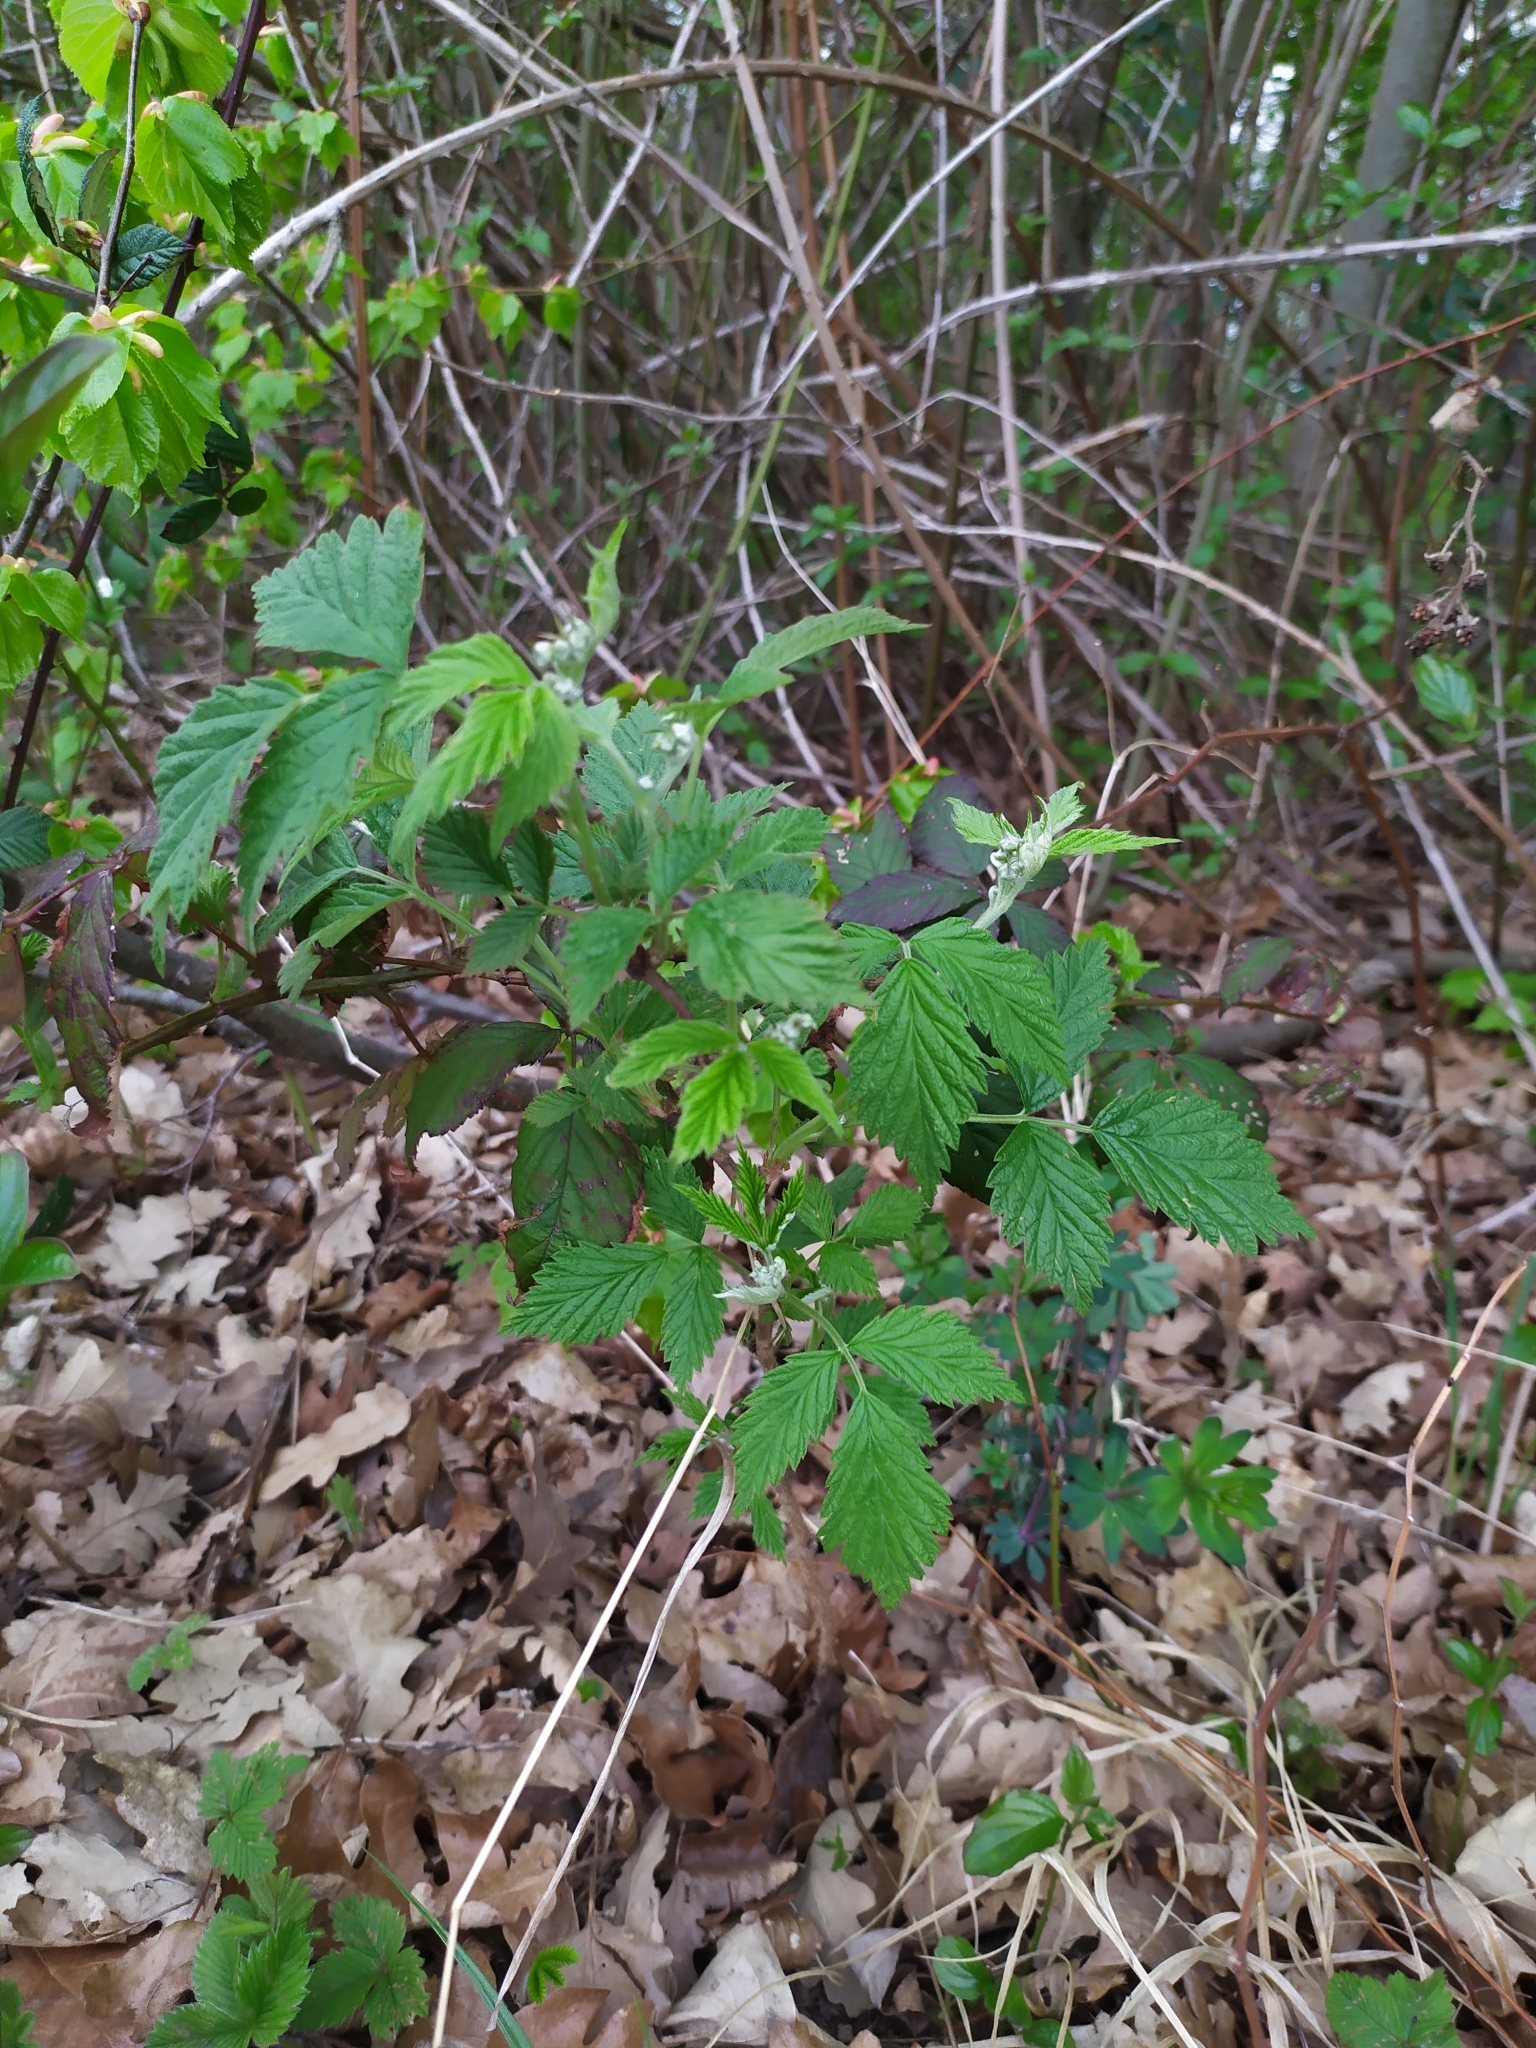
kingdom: Plantae
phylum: Tracheophyta
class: Magnoliopsida
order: Rosales
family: Rosaceae
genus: Rubus
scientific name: Rubus idaeus
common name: Raspberry
